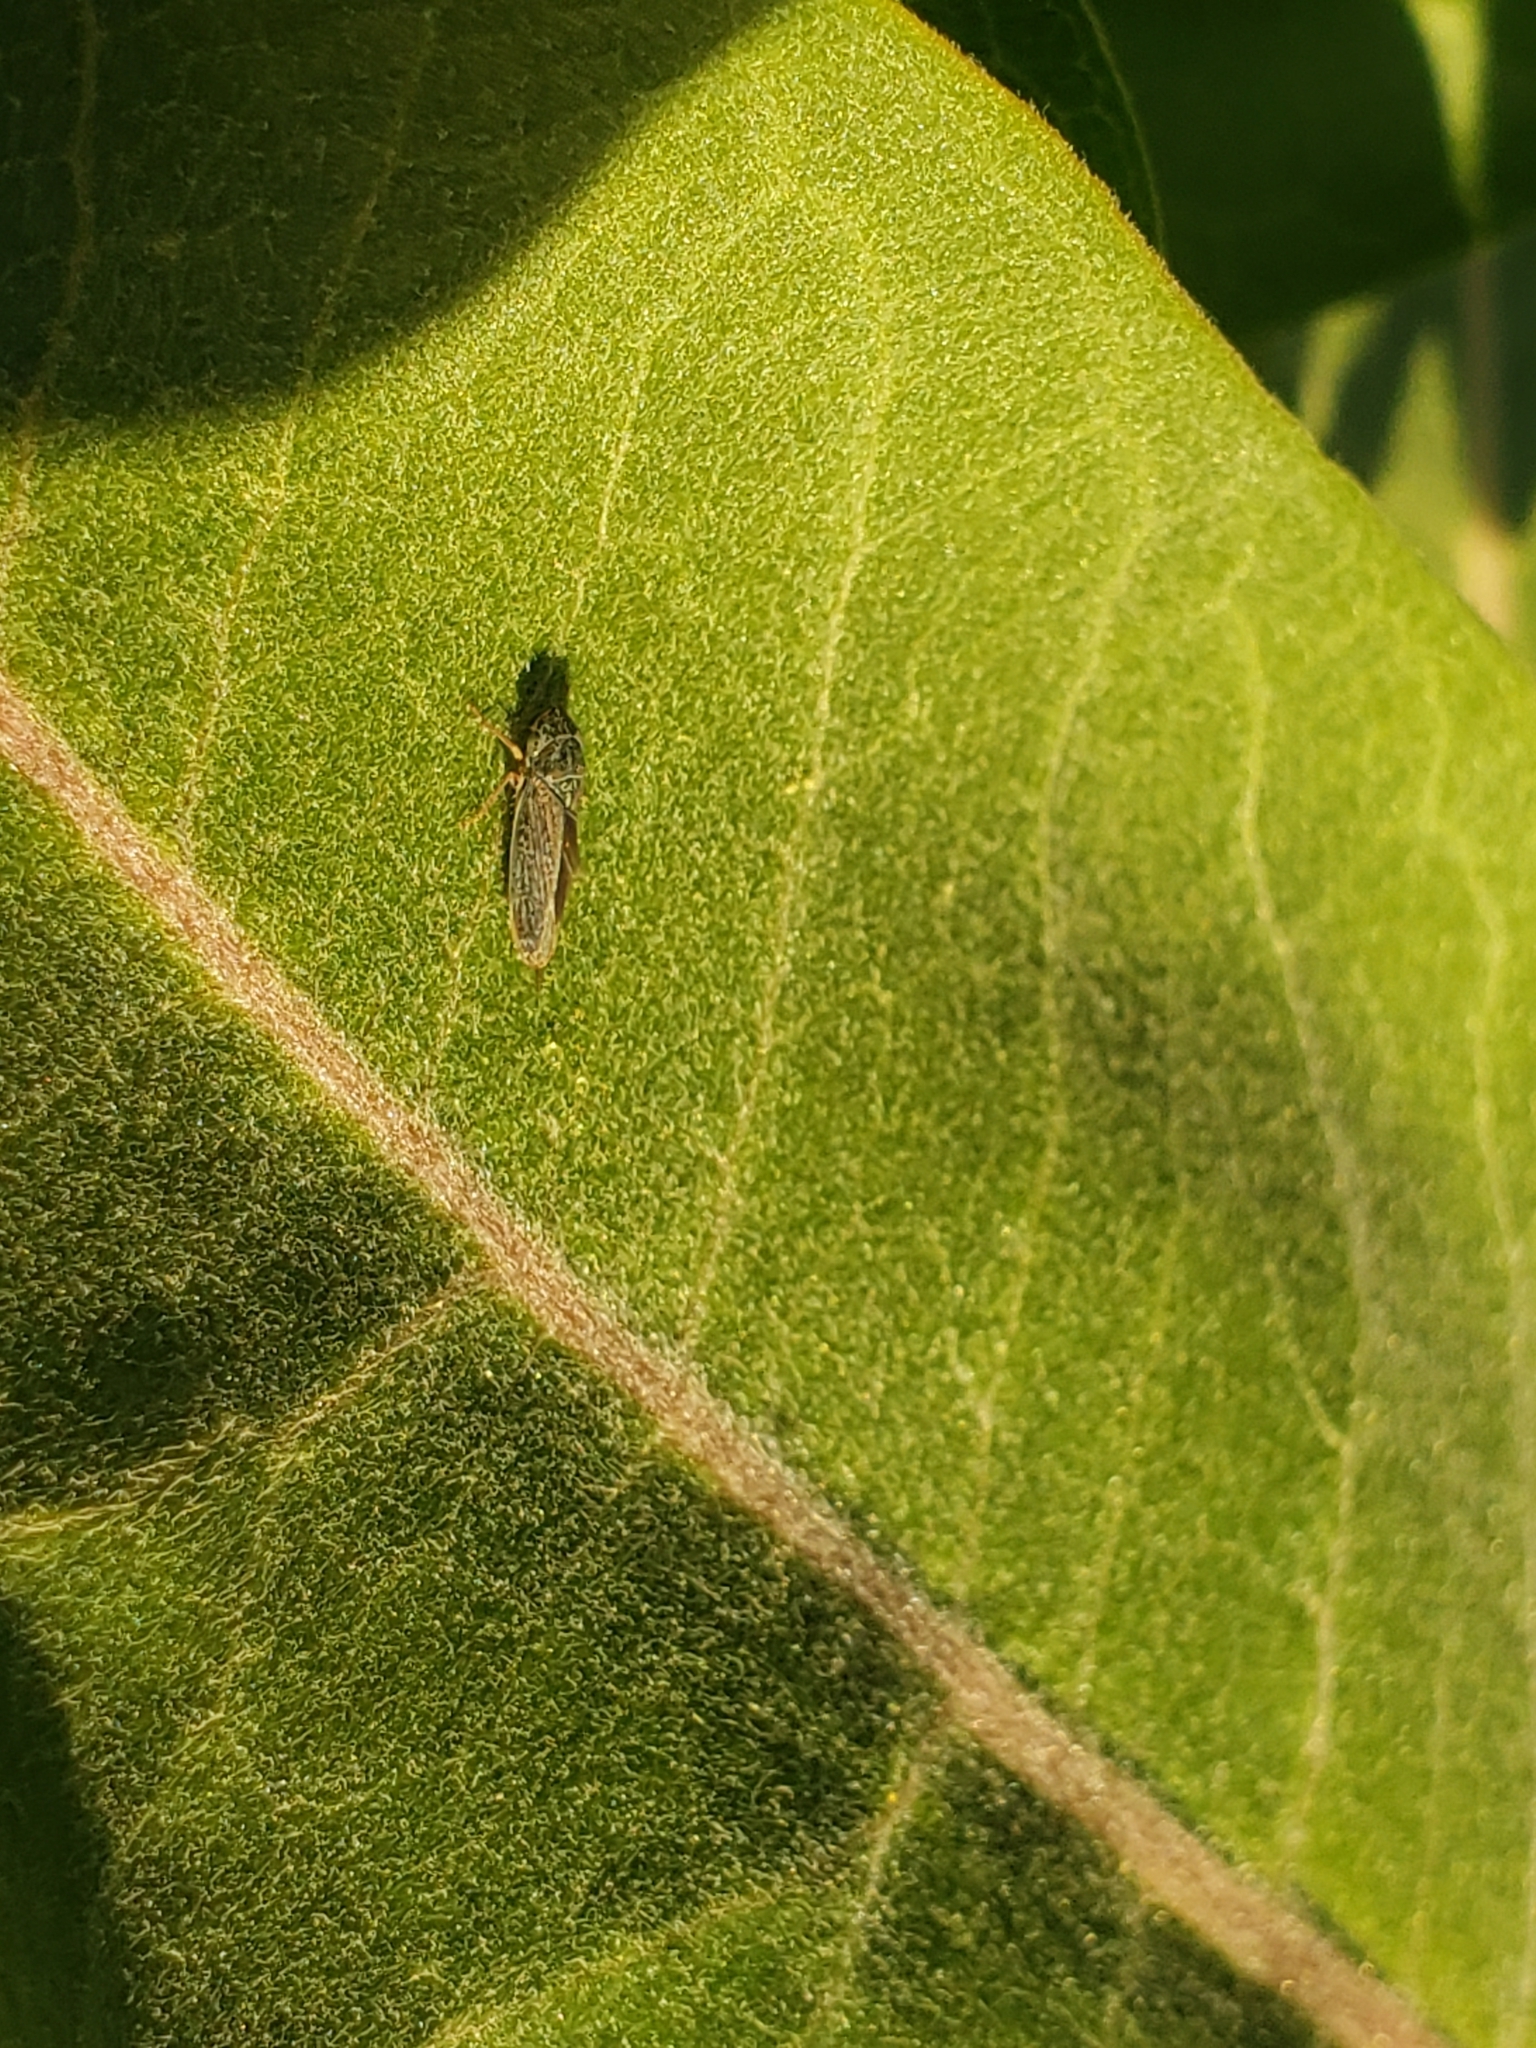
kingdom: Animalia
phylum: Arthropoda
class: Insecta
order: Hemiptera
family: Cicadellidae
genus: Graphocephala
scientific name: Graphocephala confluens
